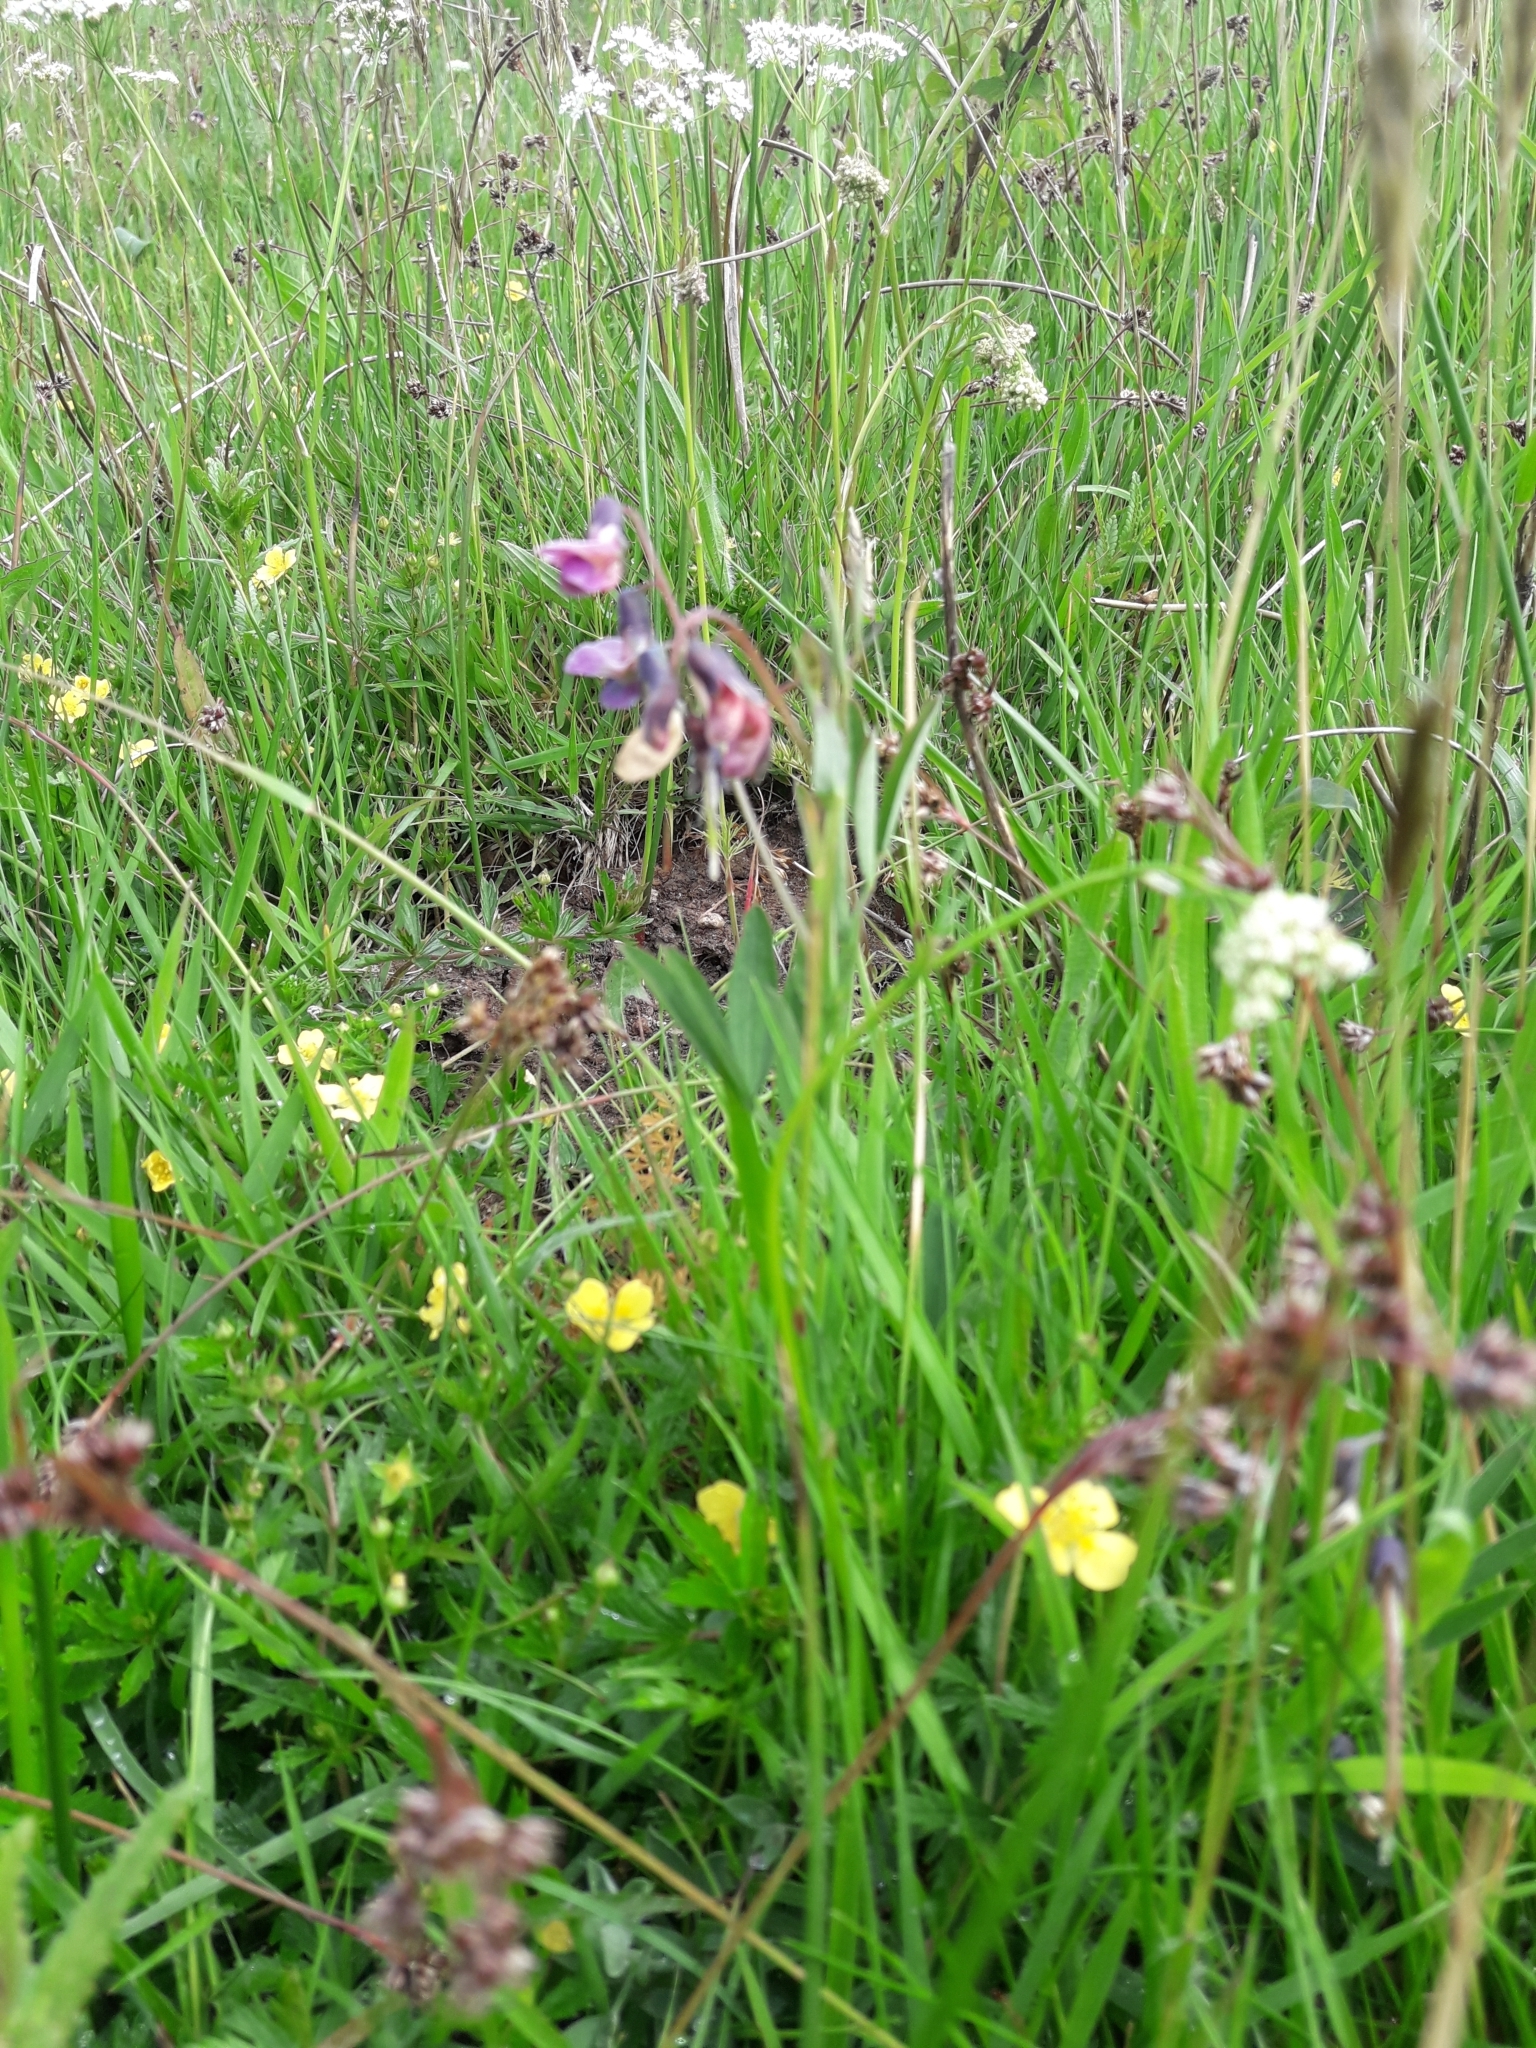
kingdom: Plantae
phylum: Tracheophyta
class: Magnoliopsida
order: Fabales
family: Fabaceae
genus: Lathyrus
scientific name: Lathyrus linifolius
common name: Bitter-vetch
